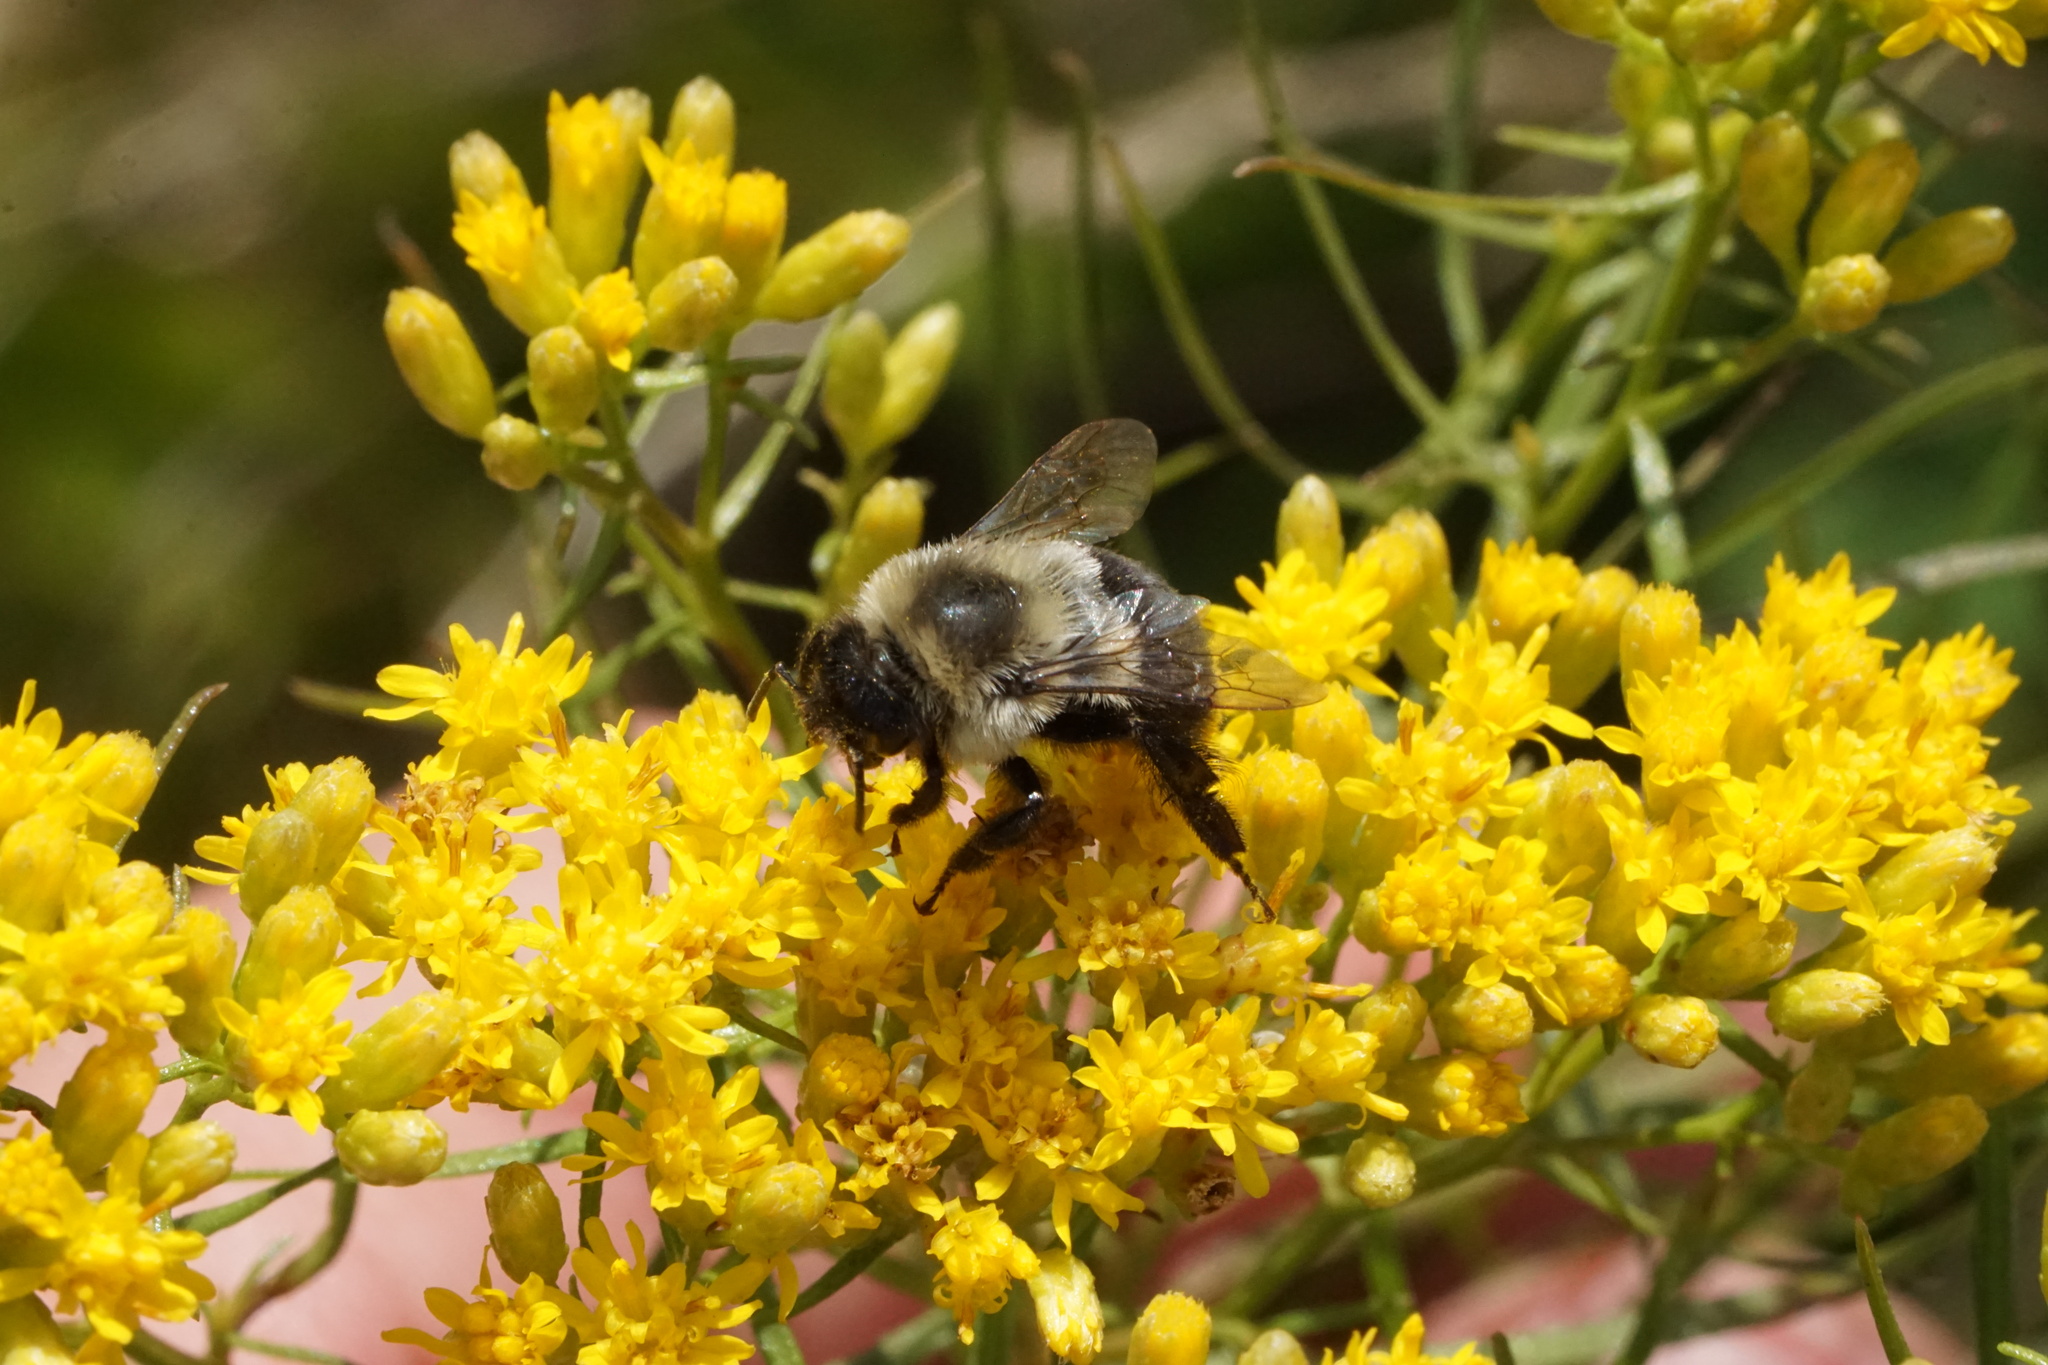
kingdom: Animalia
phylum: Arthropoda
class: Insecta
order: Hymenoptera
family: Apidae
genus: Bombus
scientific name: Bombus impatiens
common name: Common eastern bumble bee
